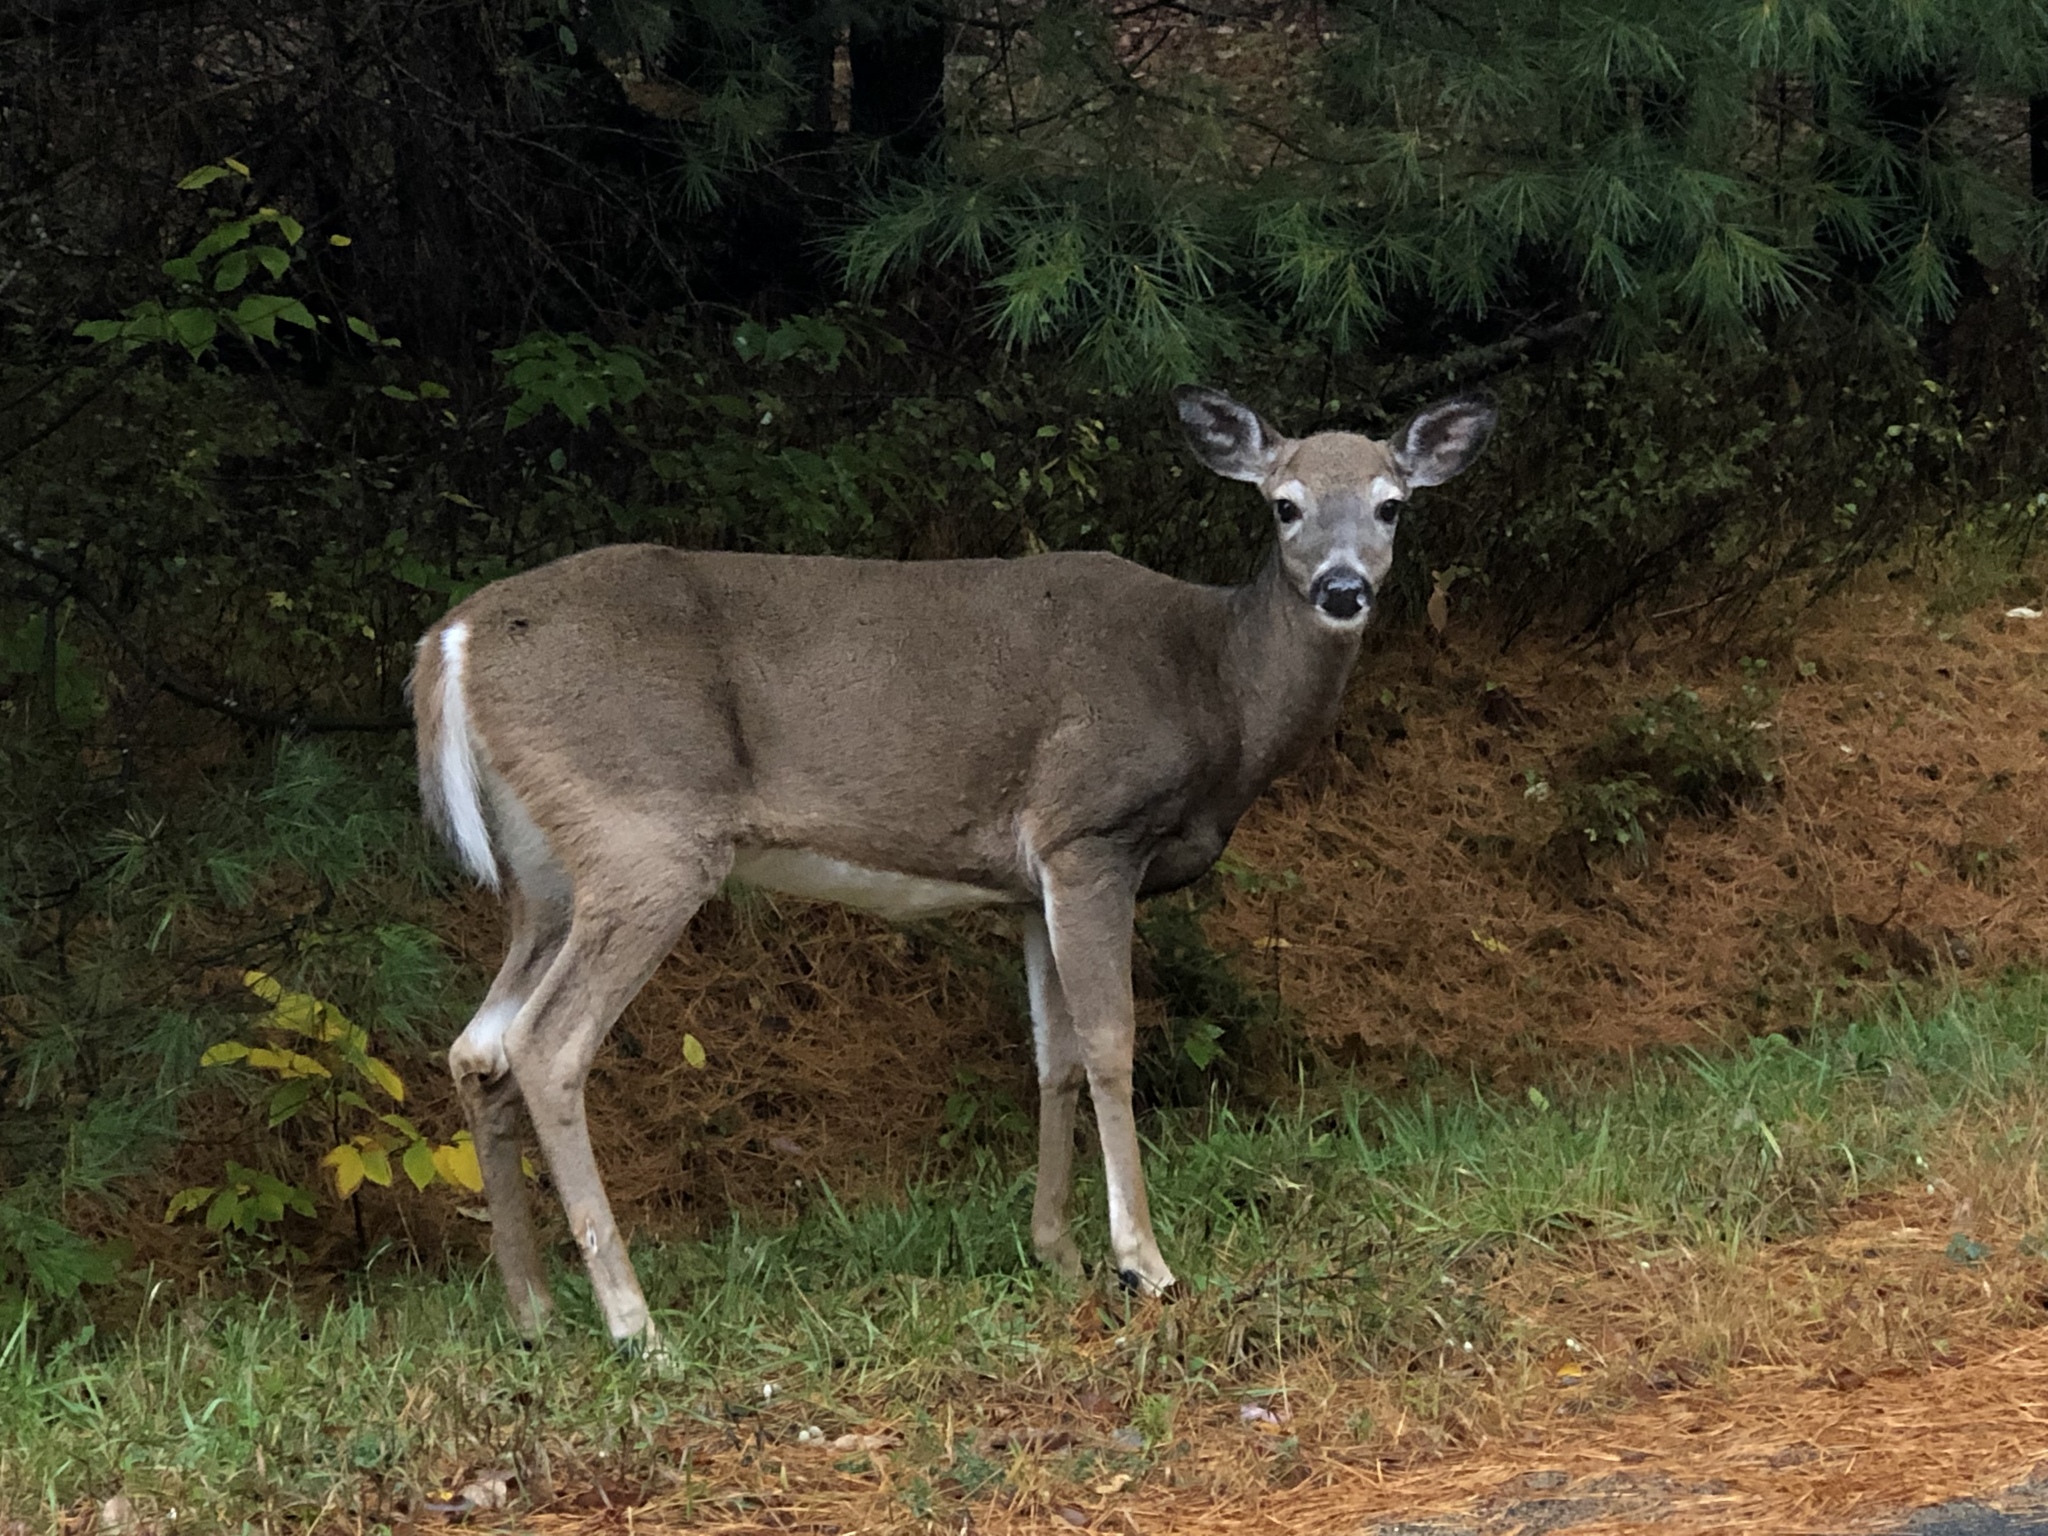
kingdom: Animalia
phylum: Chordata
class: Mammalia
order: Artiodactyla
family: Cervidae
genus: Odocoileus
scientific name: Odocoileus virginianus
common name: White-tailed deer
